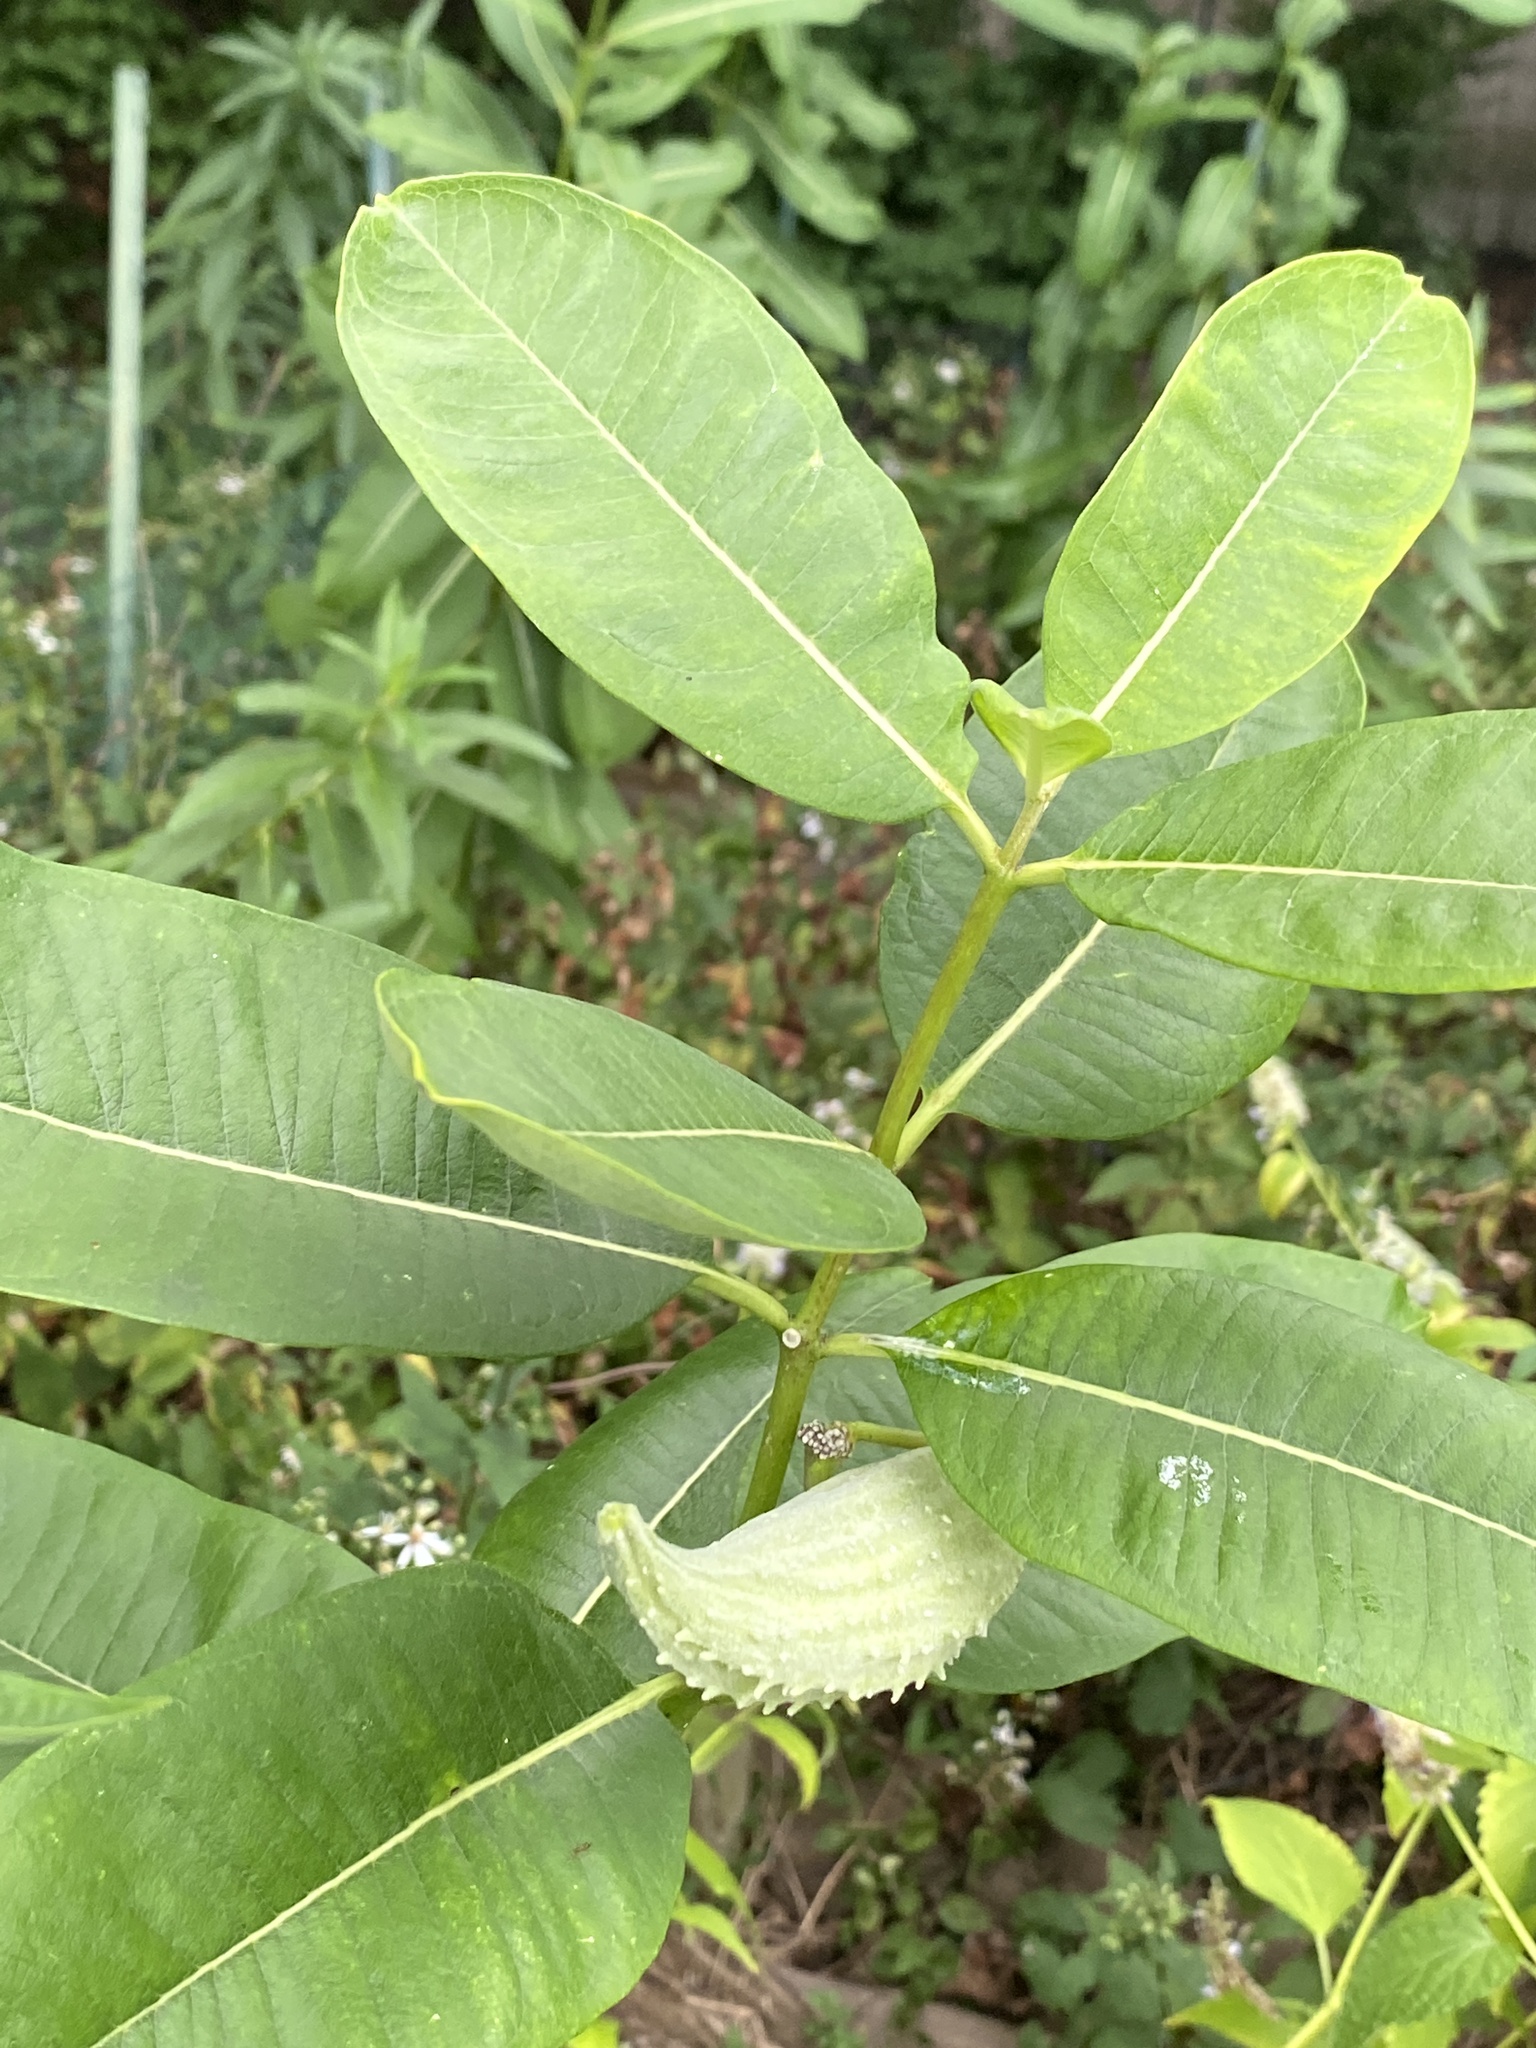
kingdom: Plantae
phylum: Tracheophyta
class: Magnoliopsida
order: Gentianales
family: Apocynaceae
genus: Asclepias
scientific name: Asclepias syriaca
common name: Common milkweed
